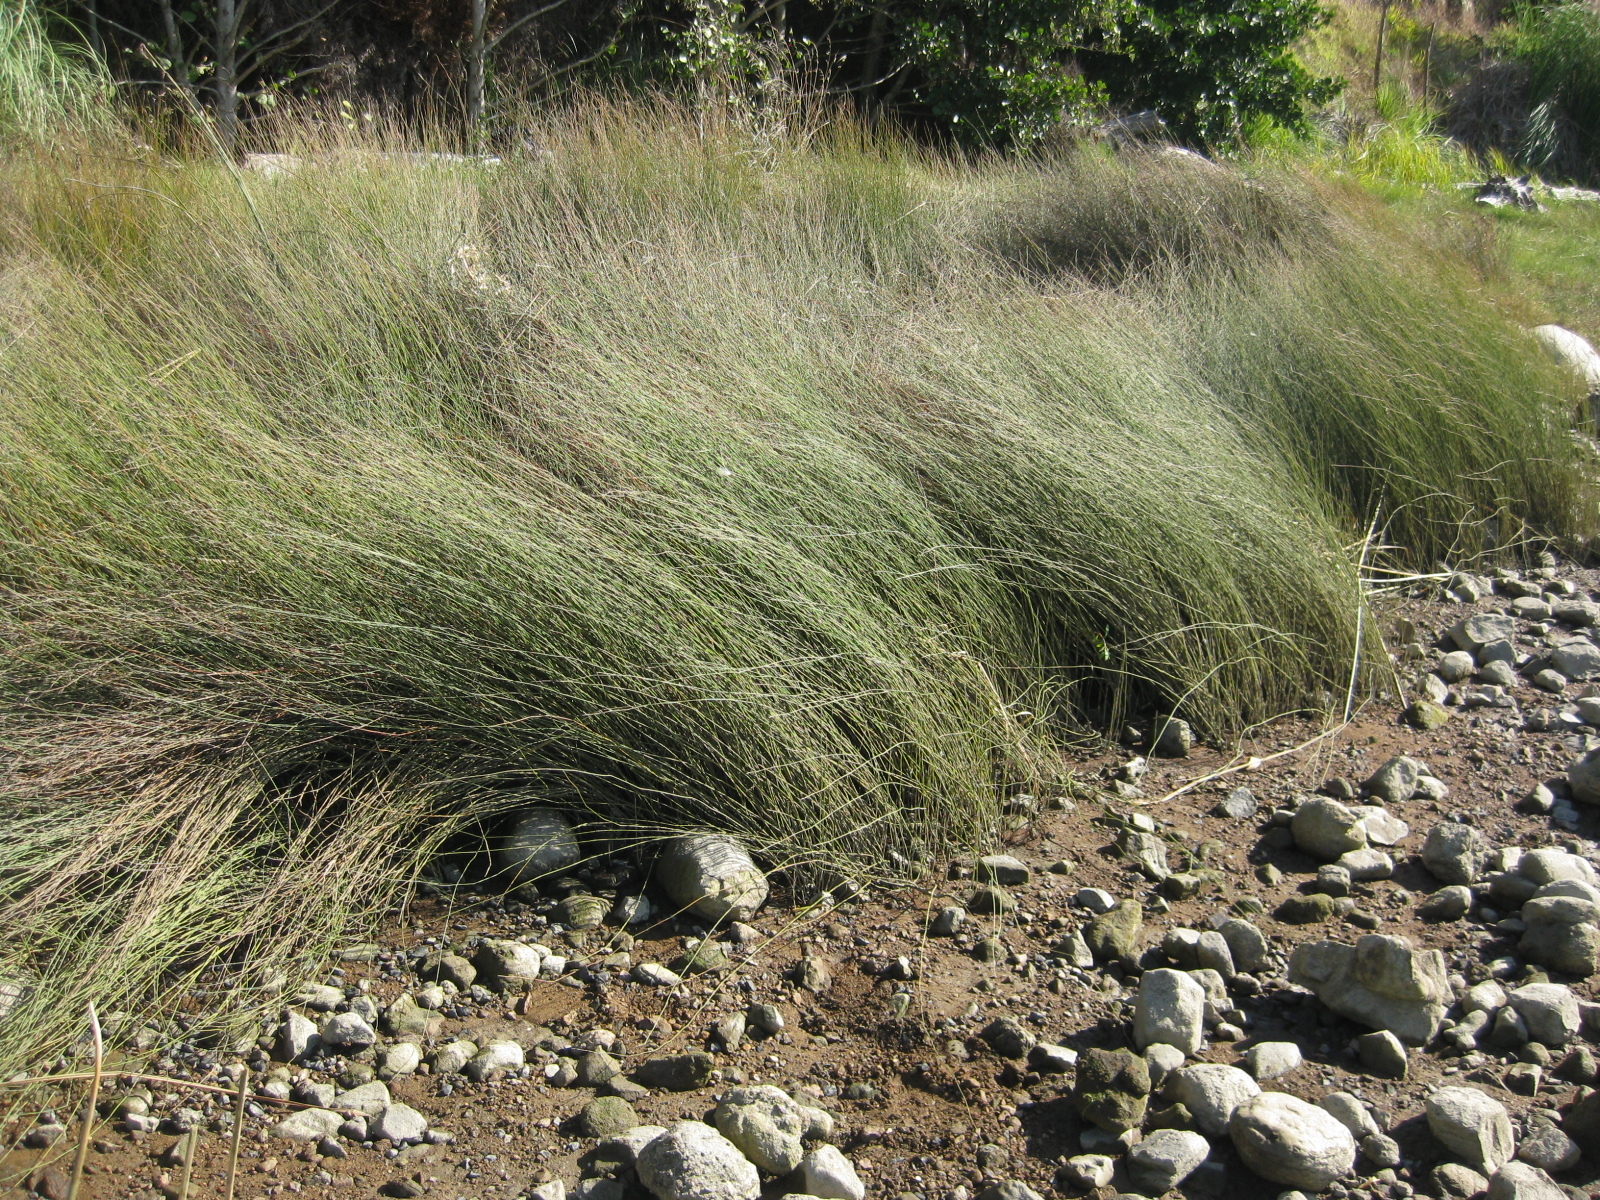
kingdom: Plantae
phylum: Tracheophyta
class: Liliopsida
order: Poales
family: Restionaceae
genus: Apodasmia
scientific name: Apodasmia similis
